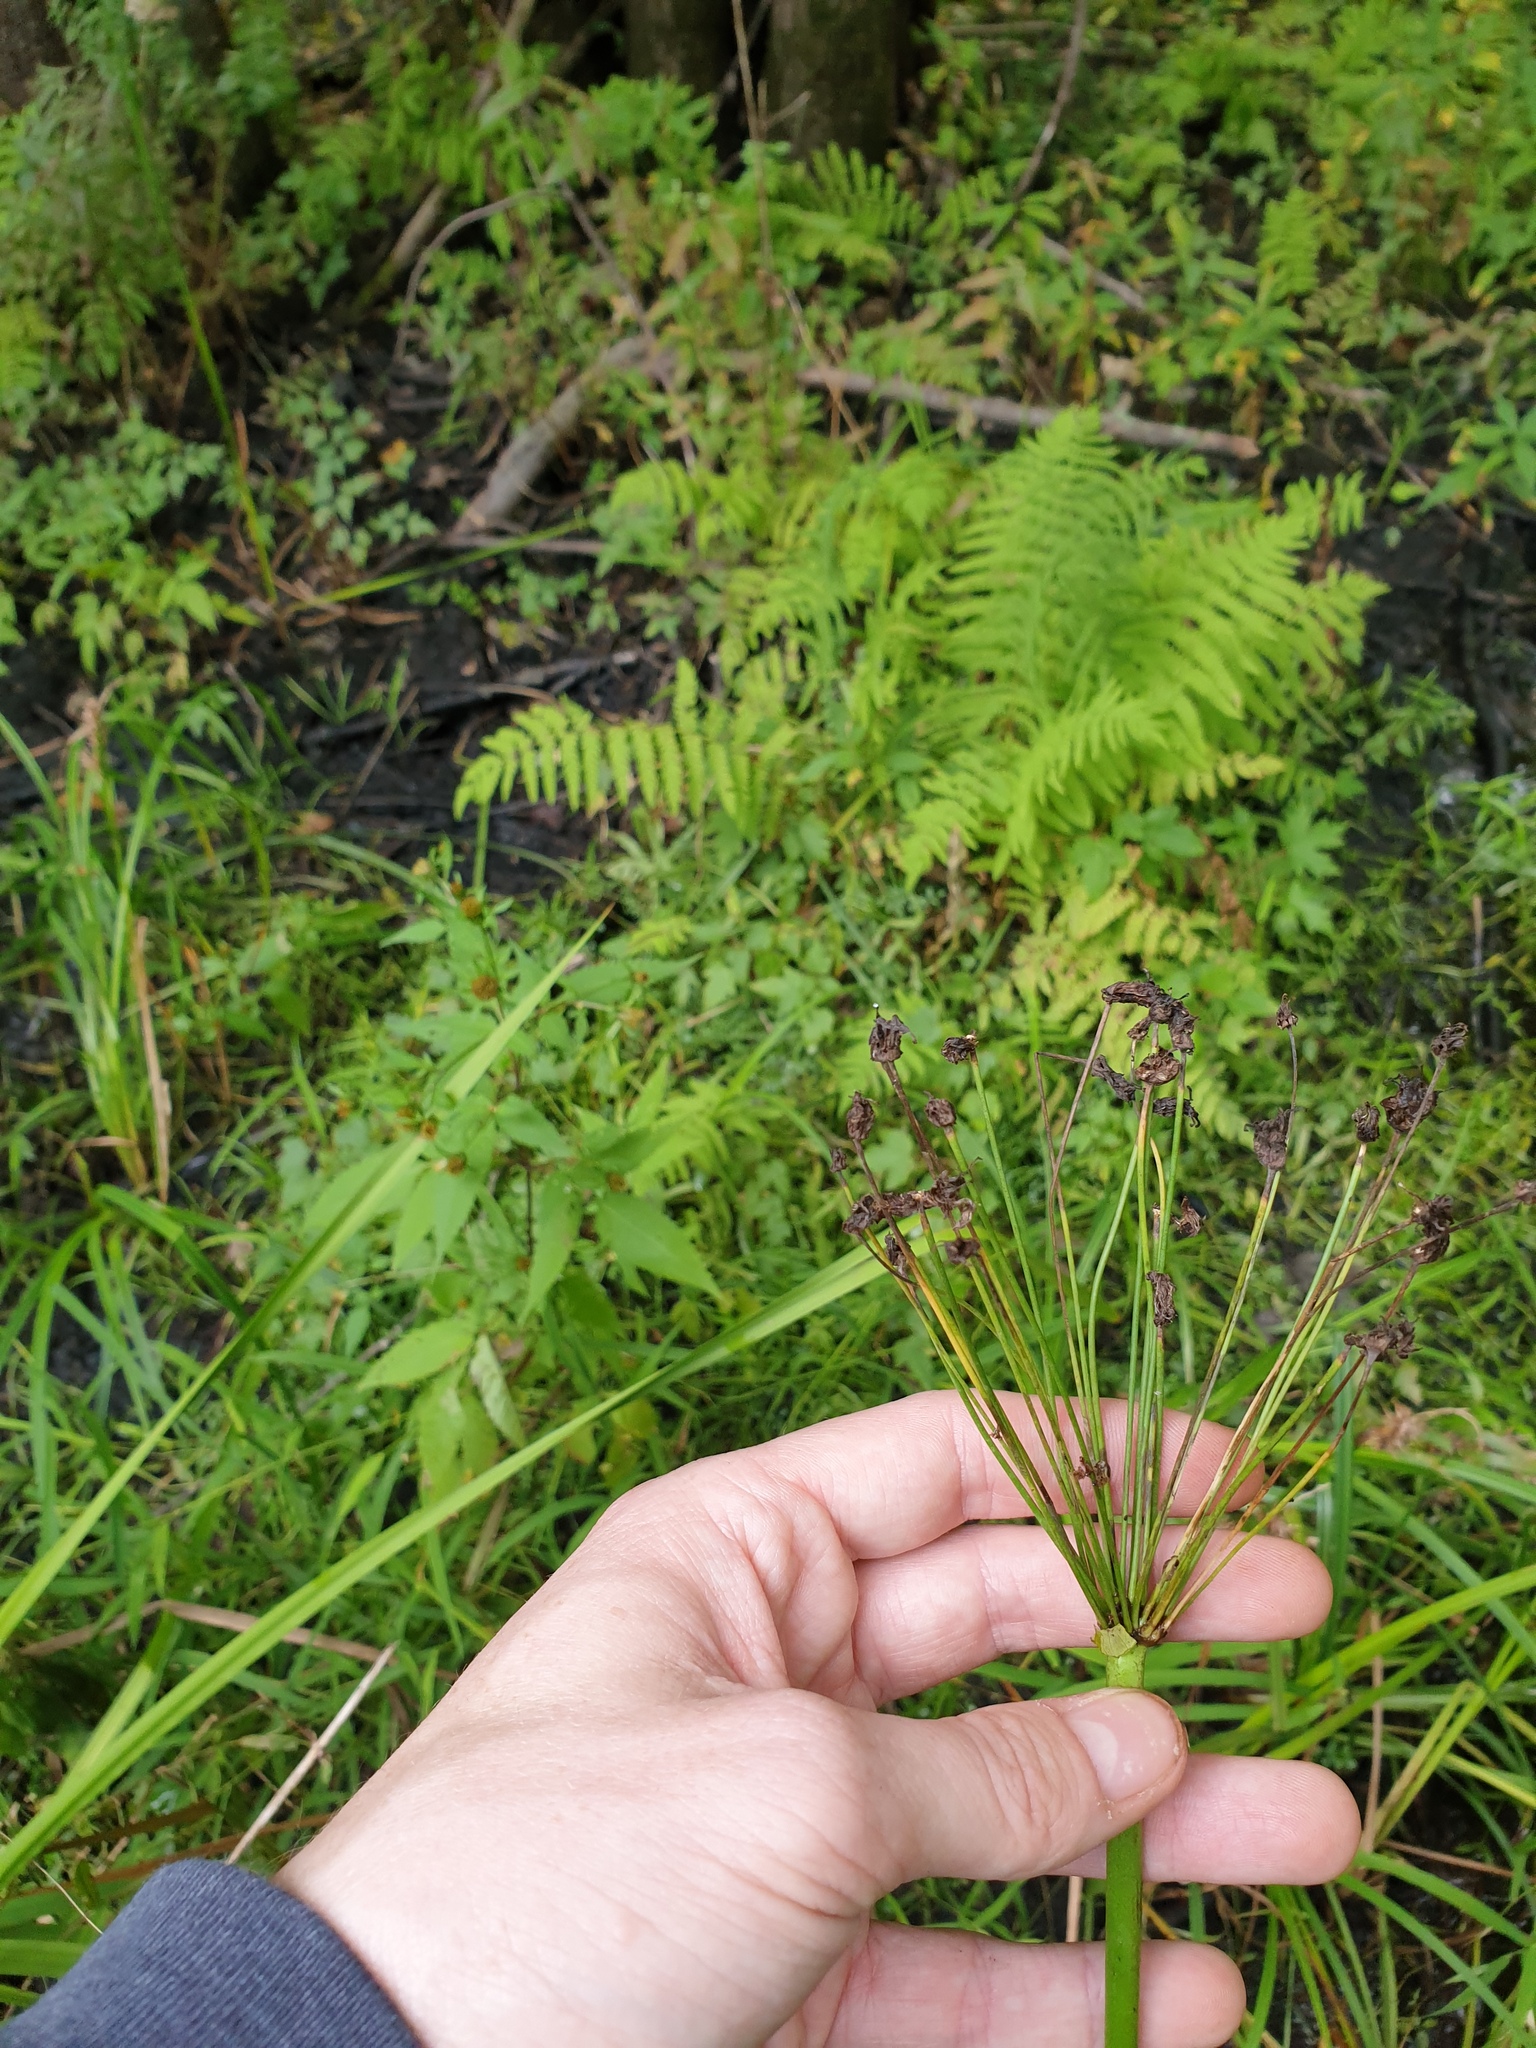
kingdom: Plantae
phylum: Tracheophyta
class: Liliopsida
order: Alismatales
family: Butomaceae
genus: Butomus
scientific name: Butomus umbellatus
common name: Flowering-rush
